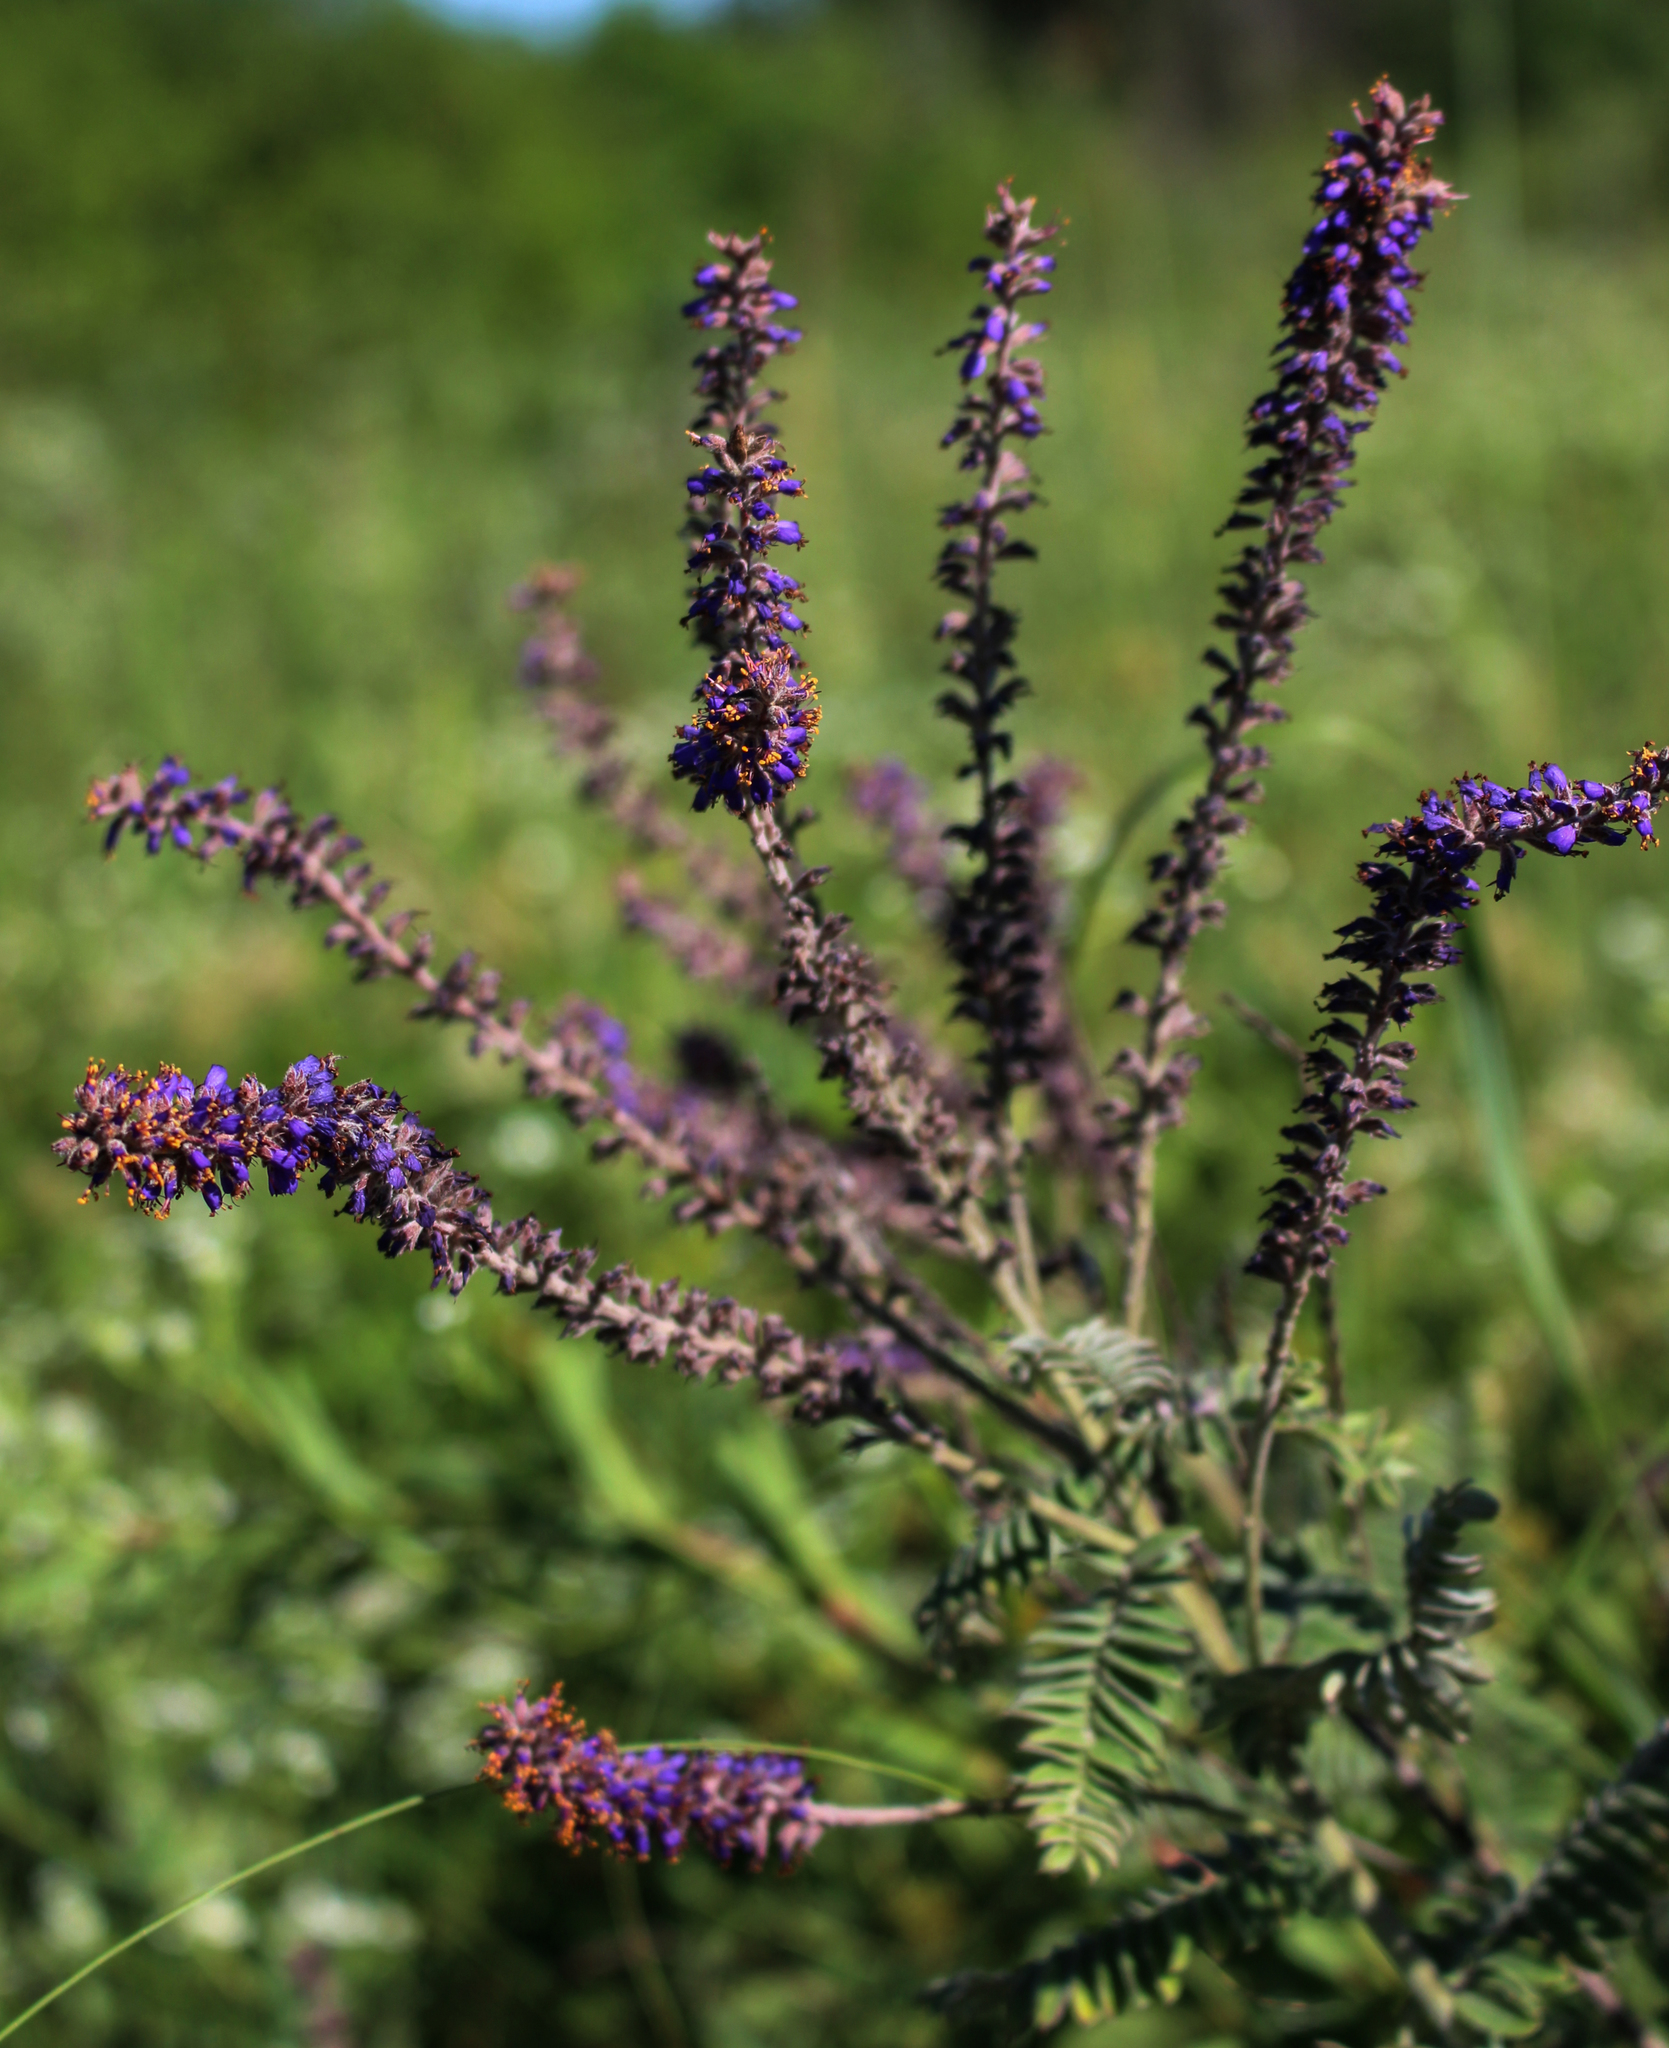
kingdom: Plantae
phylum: Tracheophyta
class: Magnoliopsida
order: Fabales
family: Fabaceae
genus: Amorpha
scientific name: Amorpha canescens
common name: Leadplant
